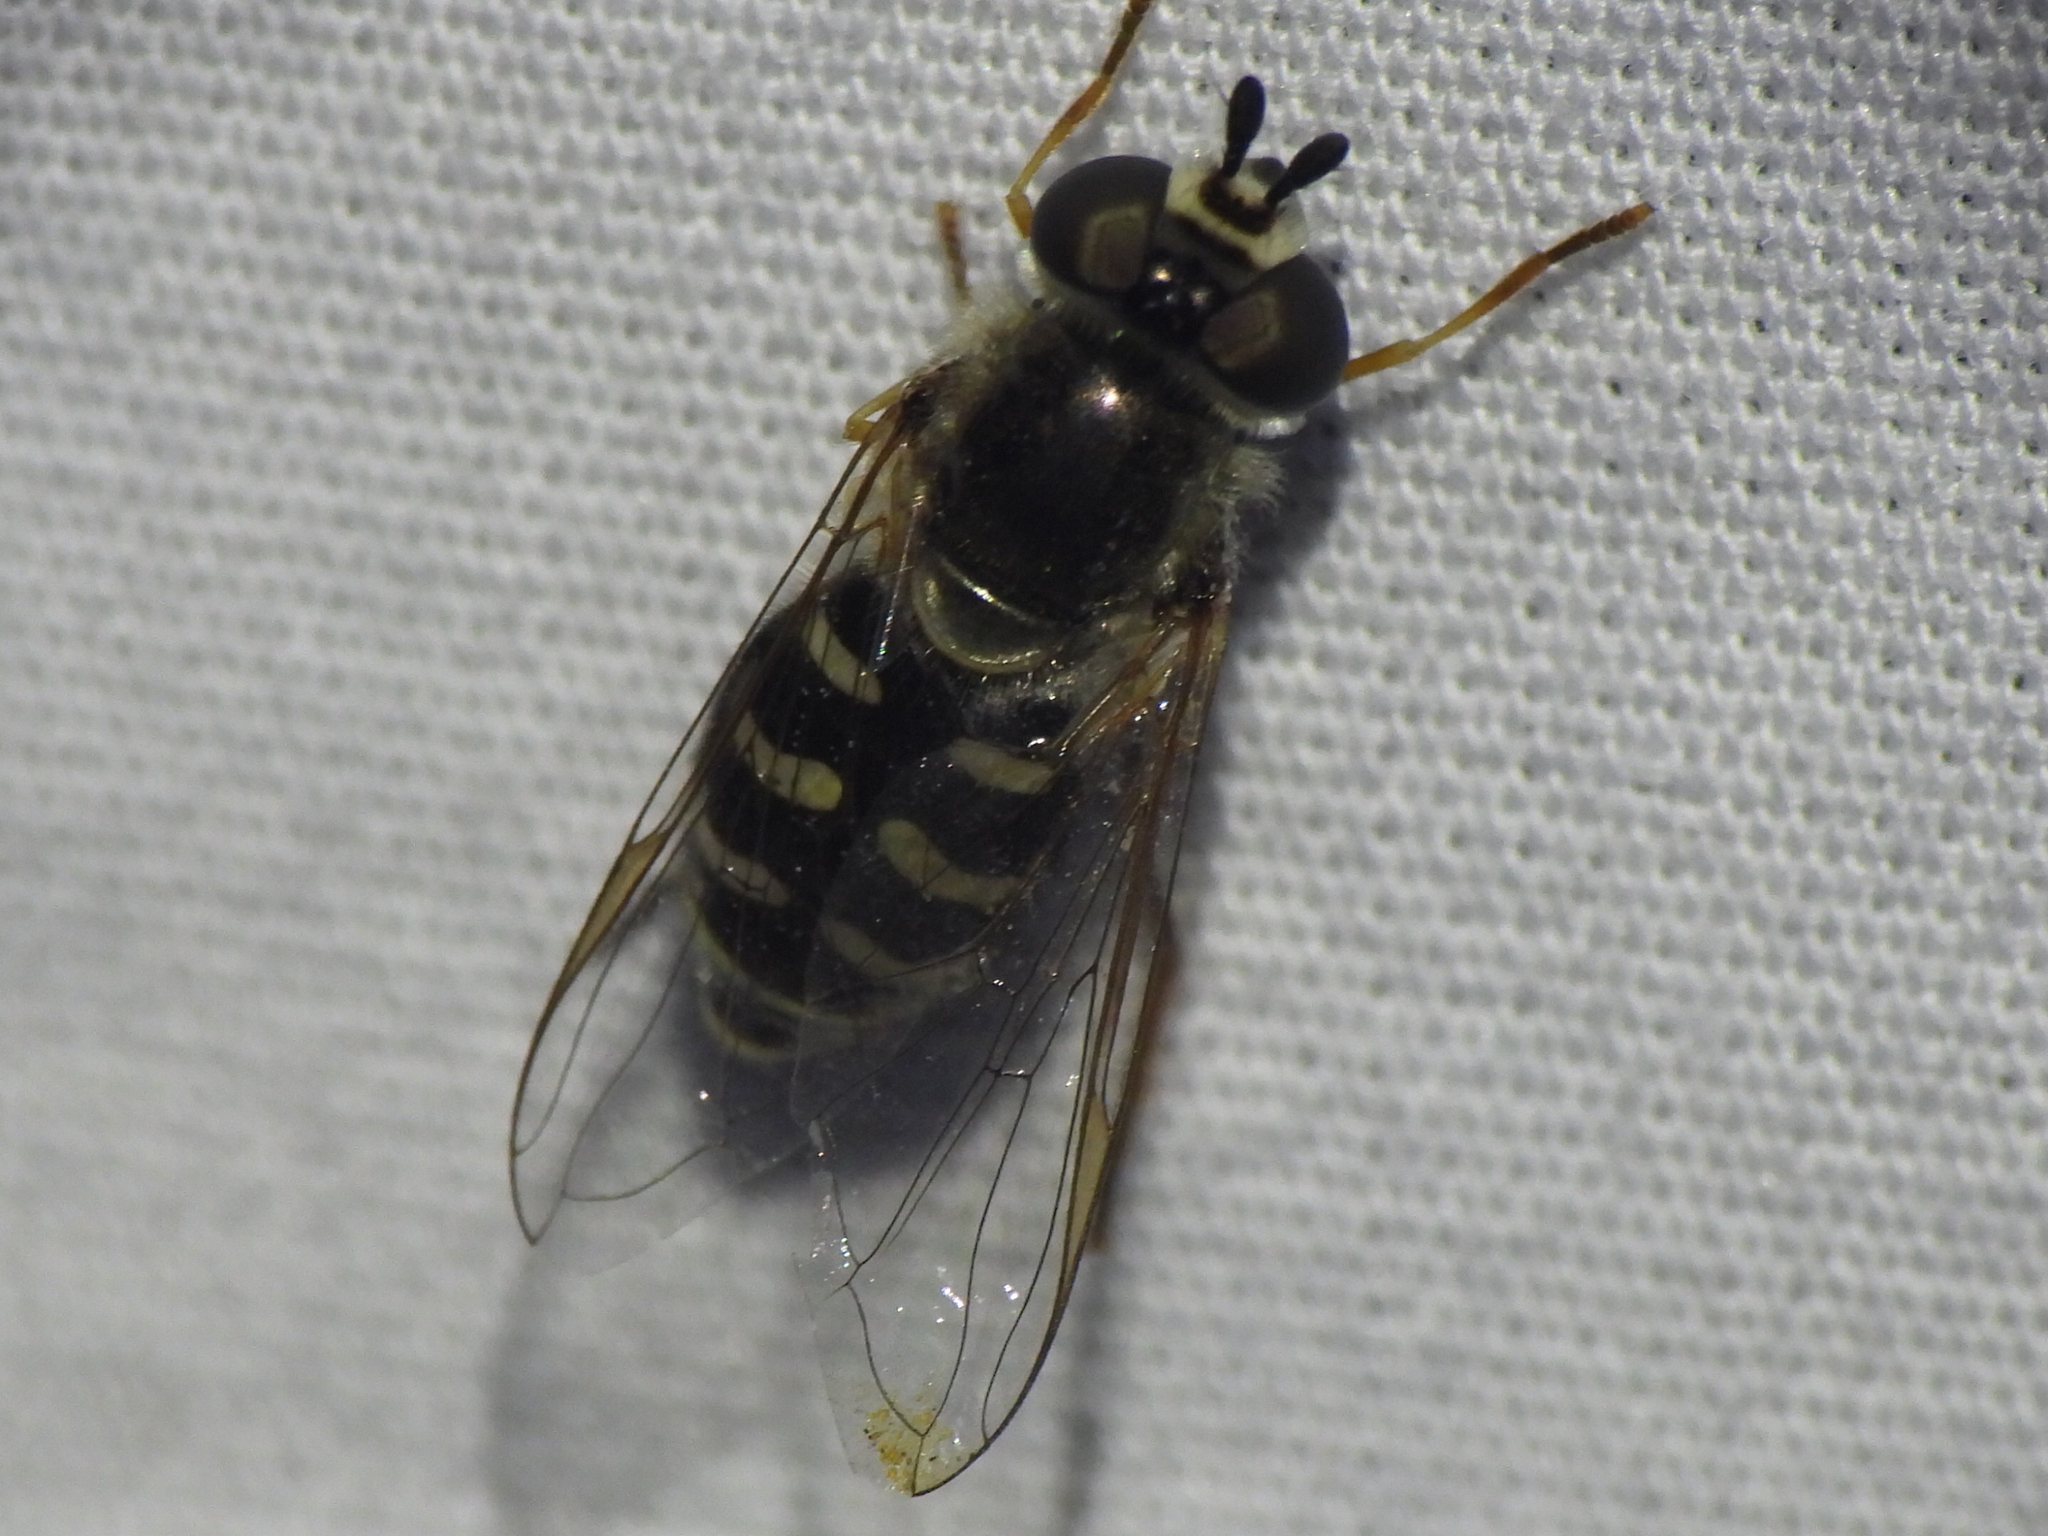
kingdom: Animalia
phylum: Arthropoda
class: Insecta
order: Diptera
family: Syrphidae
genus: Eupeodes
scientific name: Eupeodes volucris
